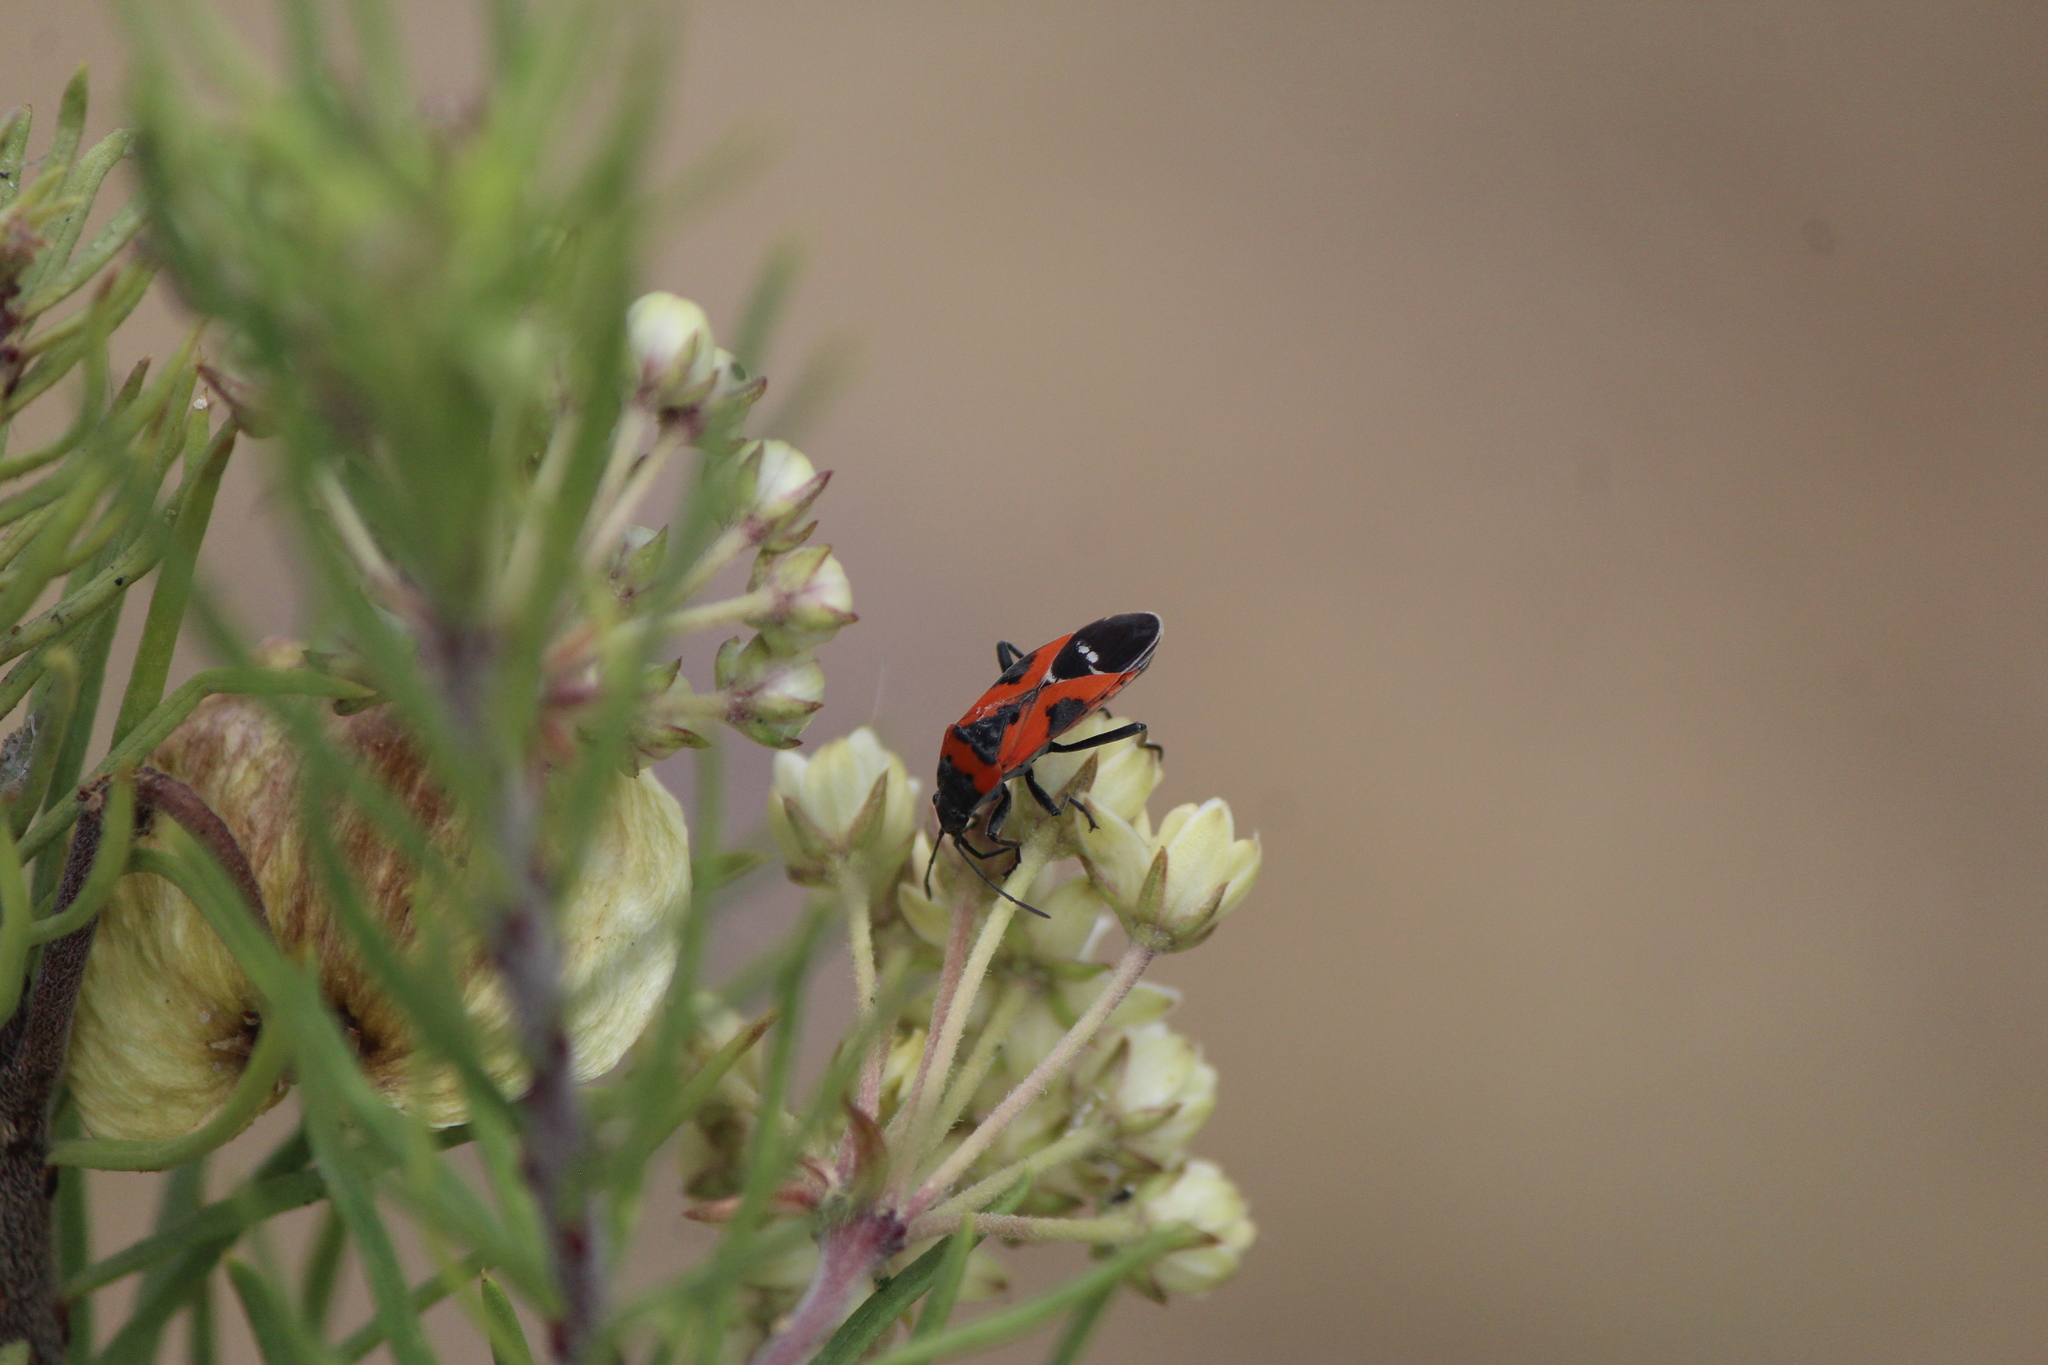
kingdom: Animalia
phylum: Arthropoda
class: Insecta
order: Hemiptera
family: Lygaeidae
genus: Lygaeus
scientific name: Lygaeus reclivatus
